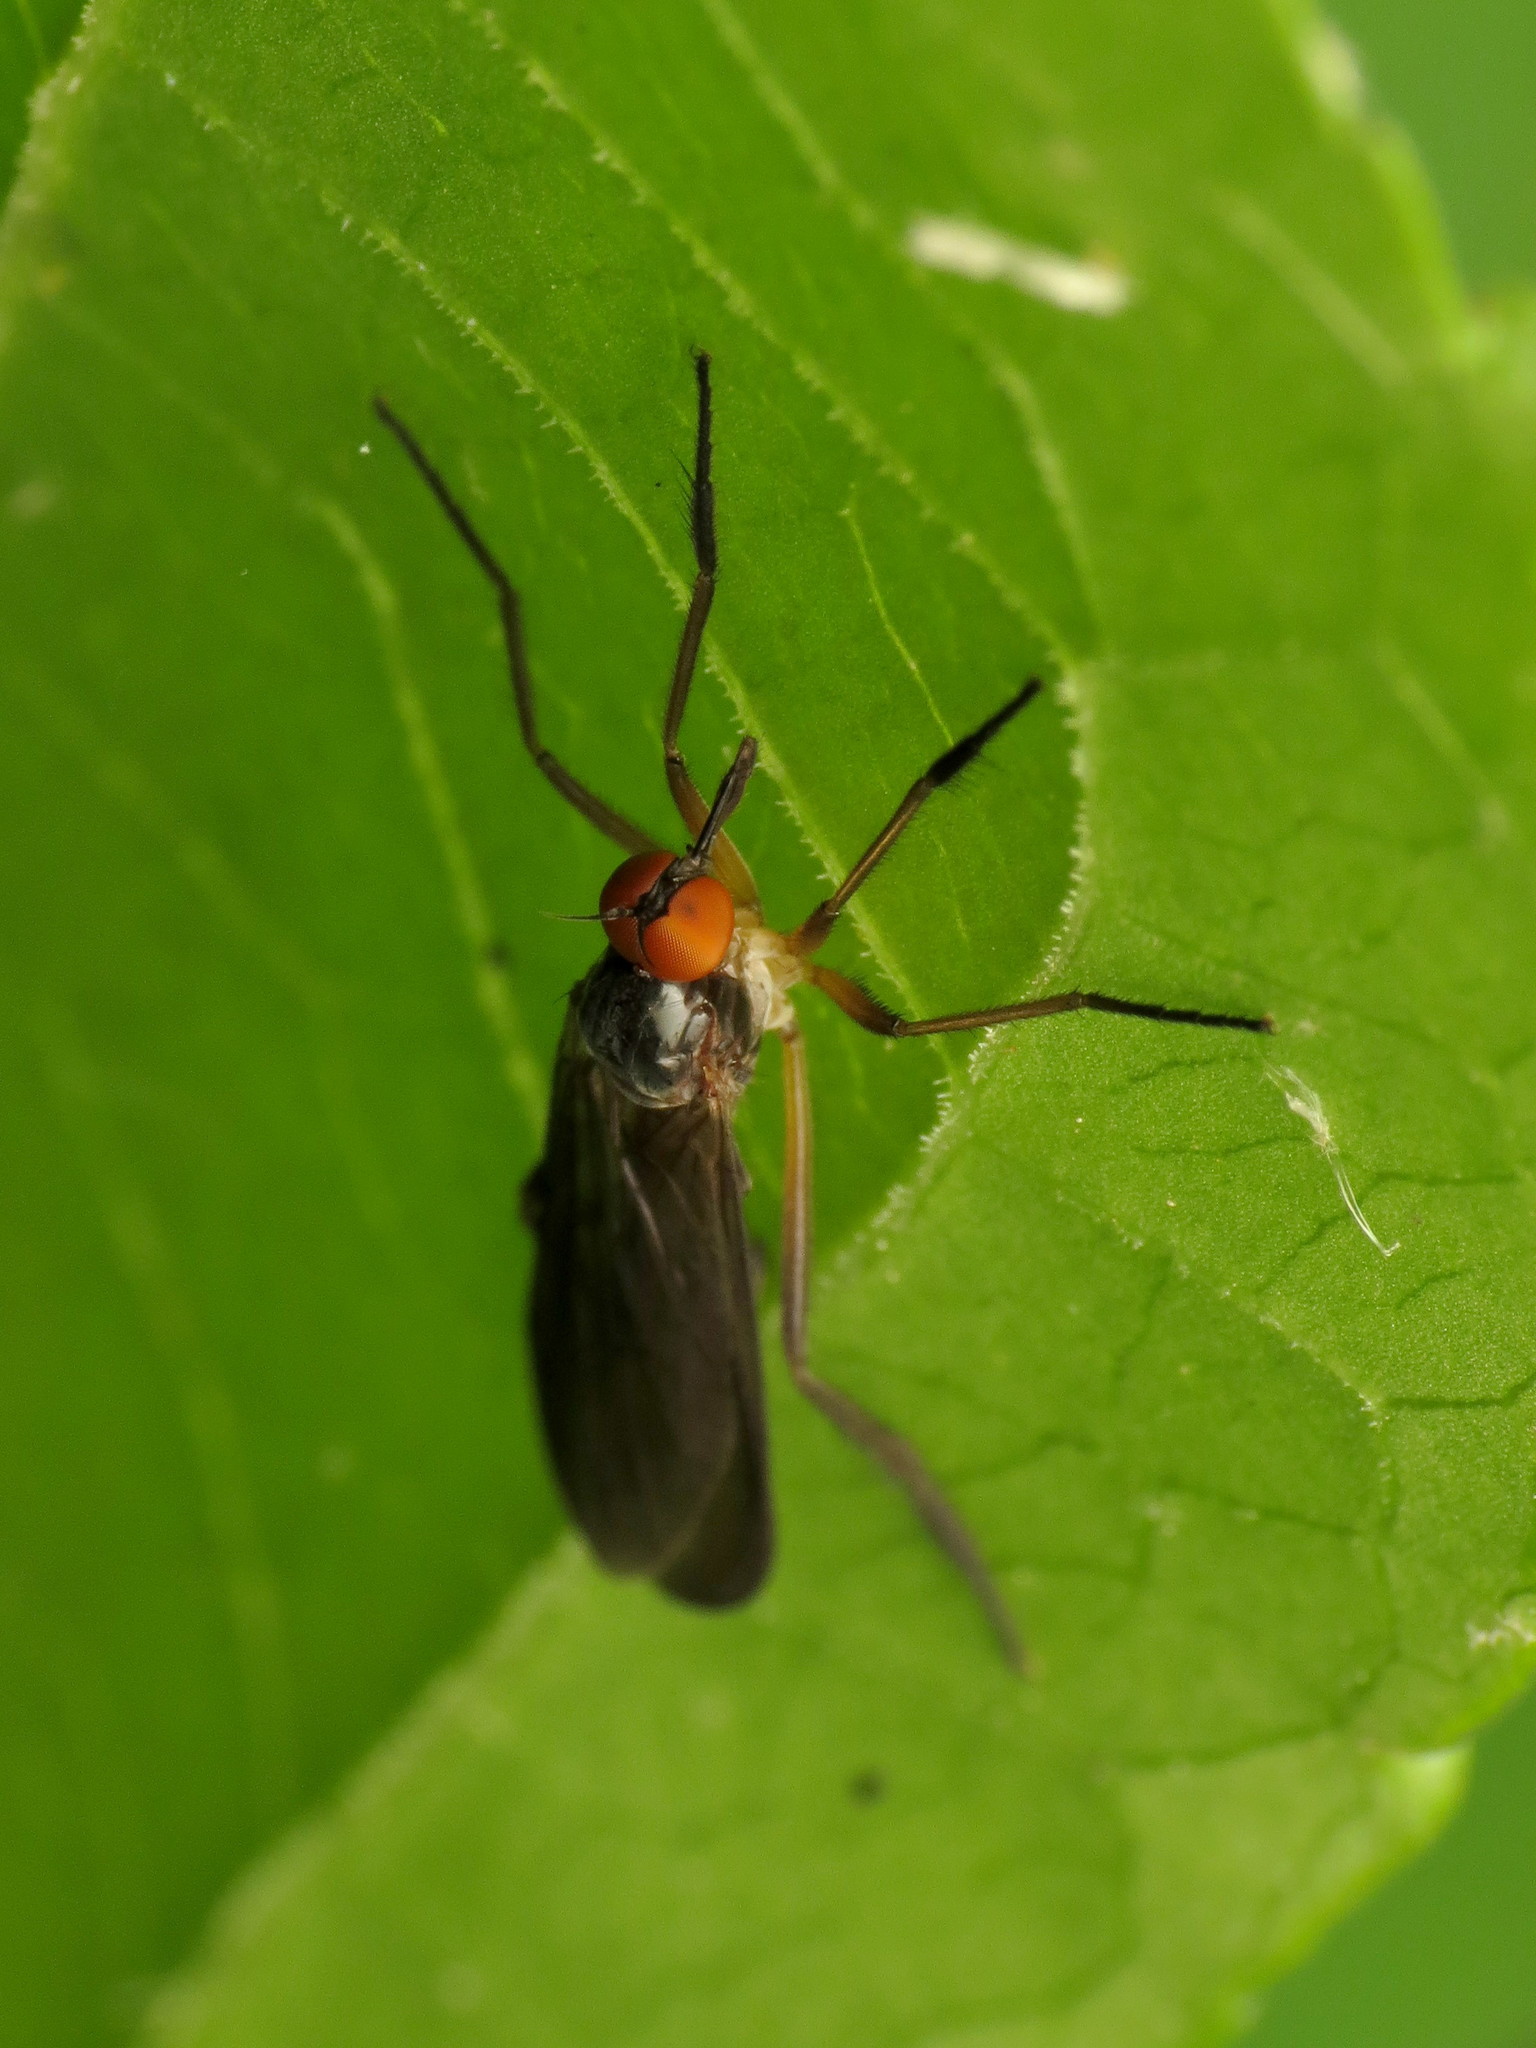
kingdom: Animalia
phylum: Arthropoda
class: Insecta
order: Diptera
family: Empididae
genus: Rhamphomyia
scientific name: Rhamphomyia longicauda
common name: Long-tailed dance fly
